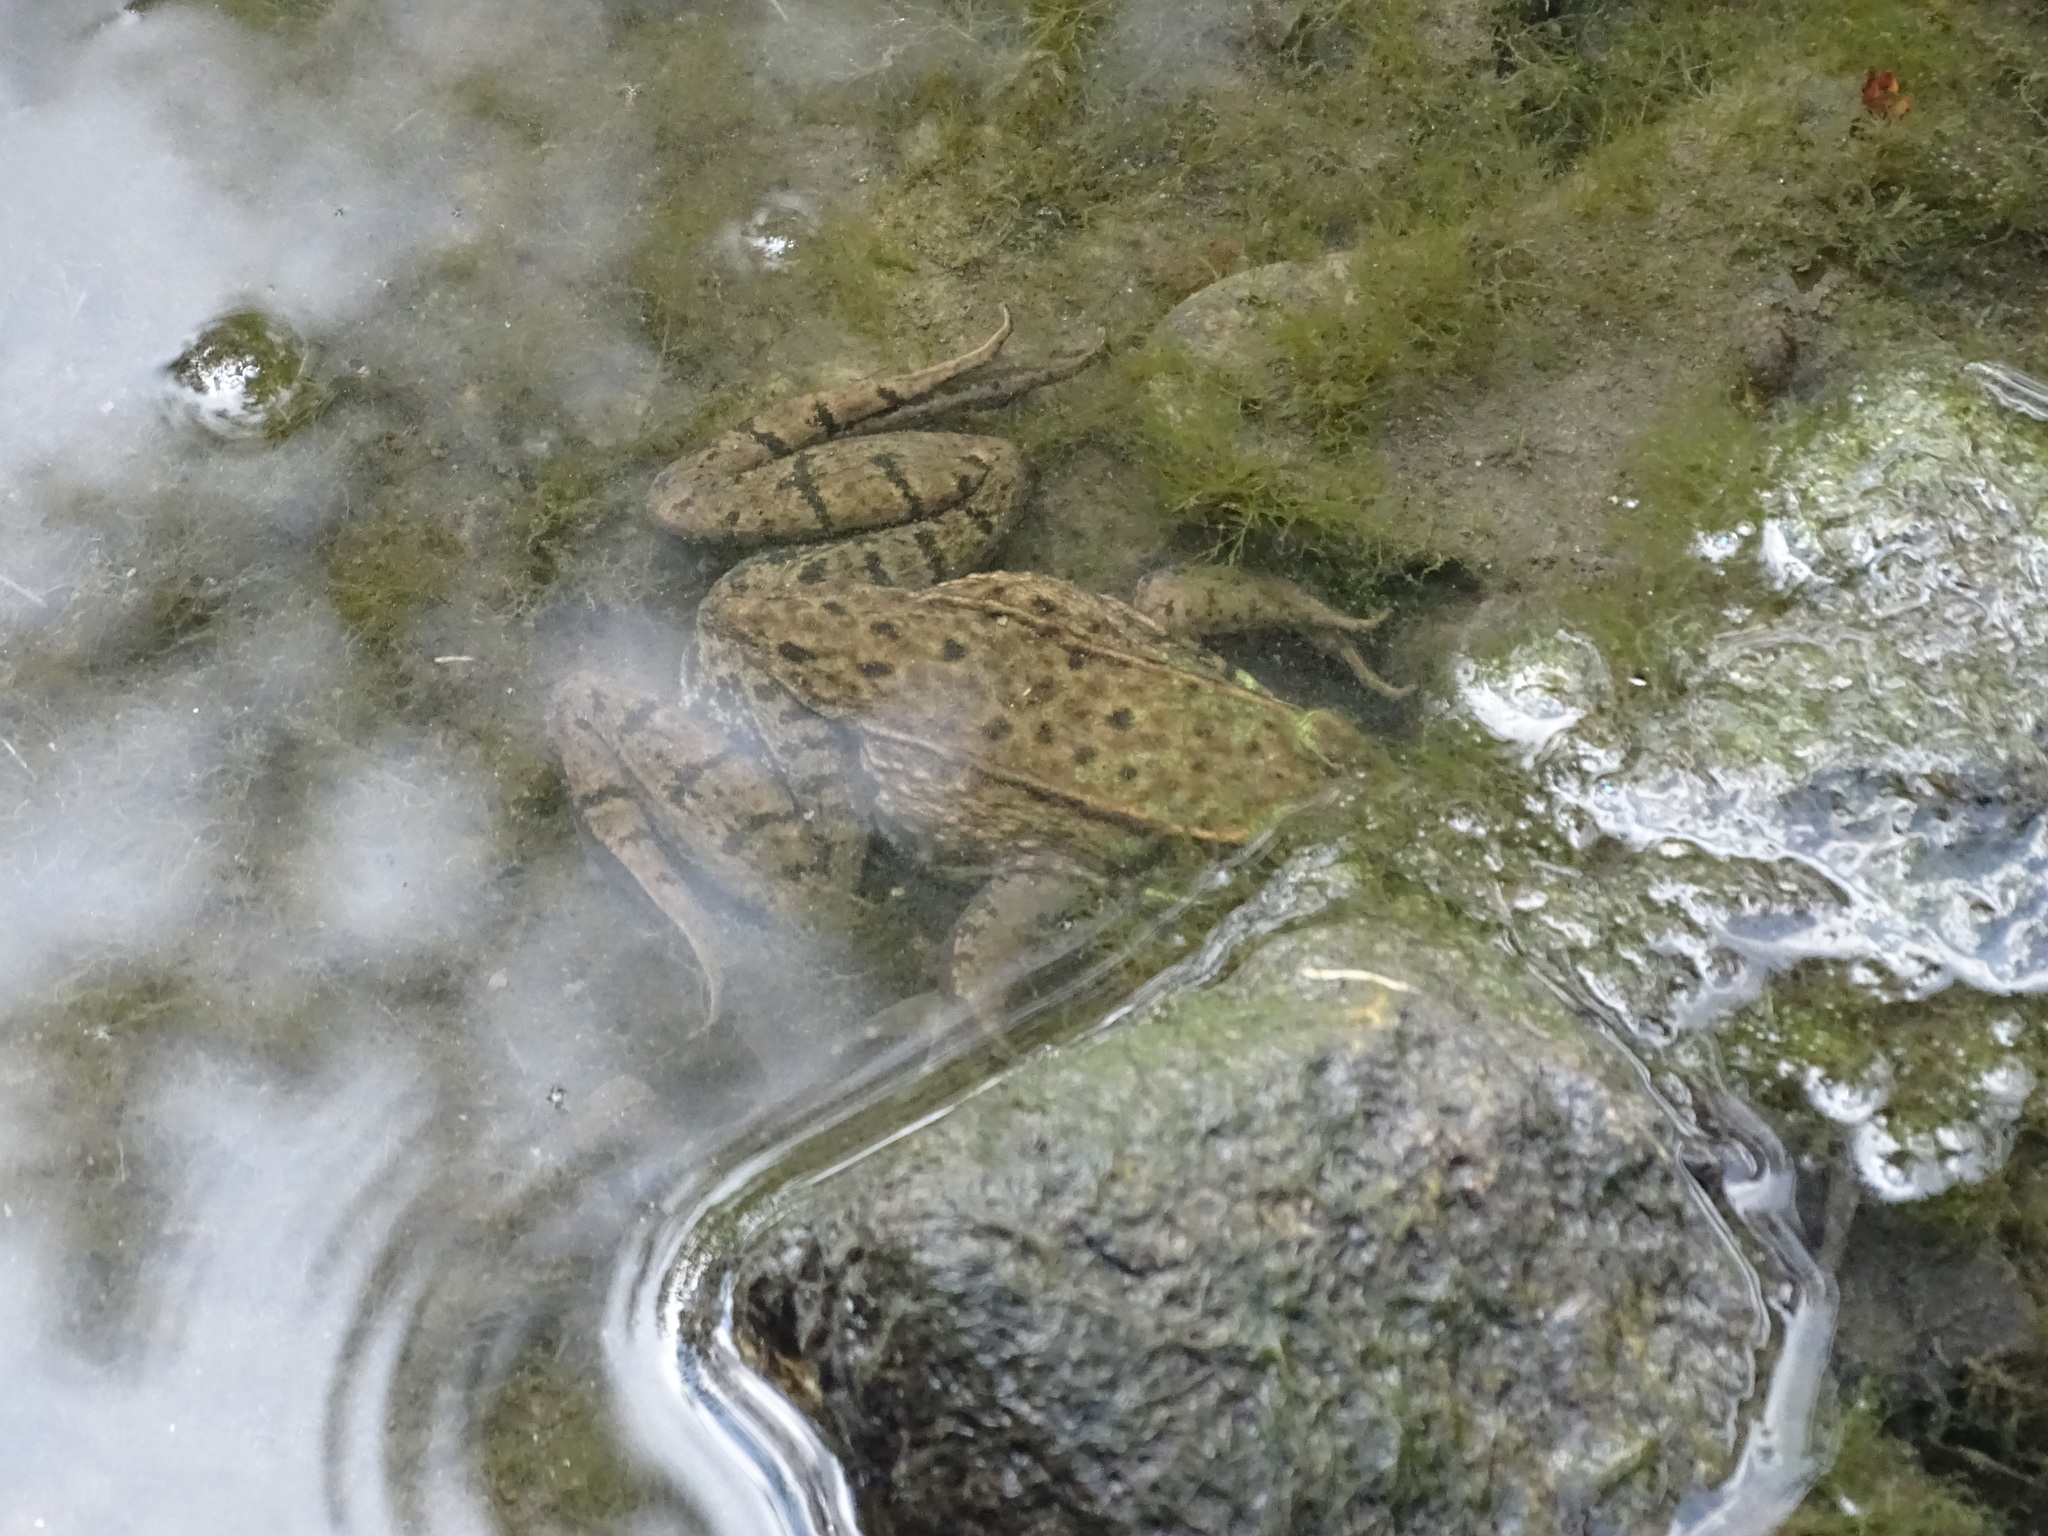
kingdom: Animalia
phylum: Chordata
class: Amphibia
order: Anura
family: Ranidae
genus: Lithobates
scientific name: Lithobates clamitans
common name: Green frog
